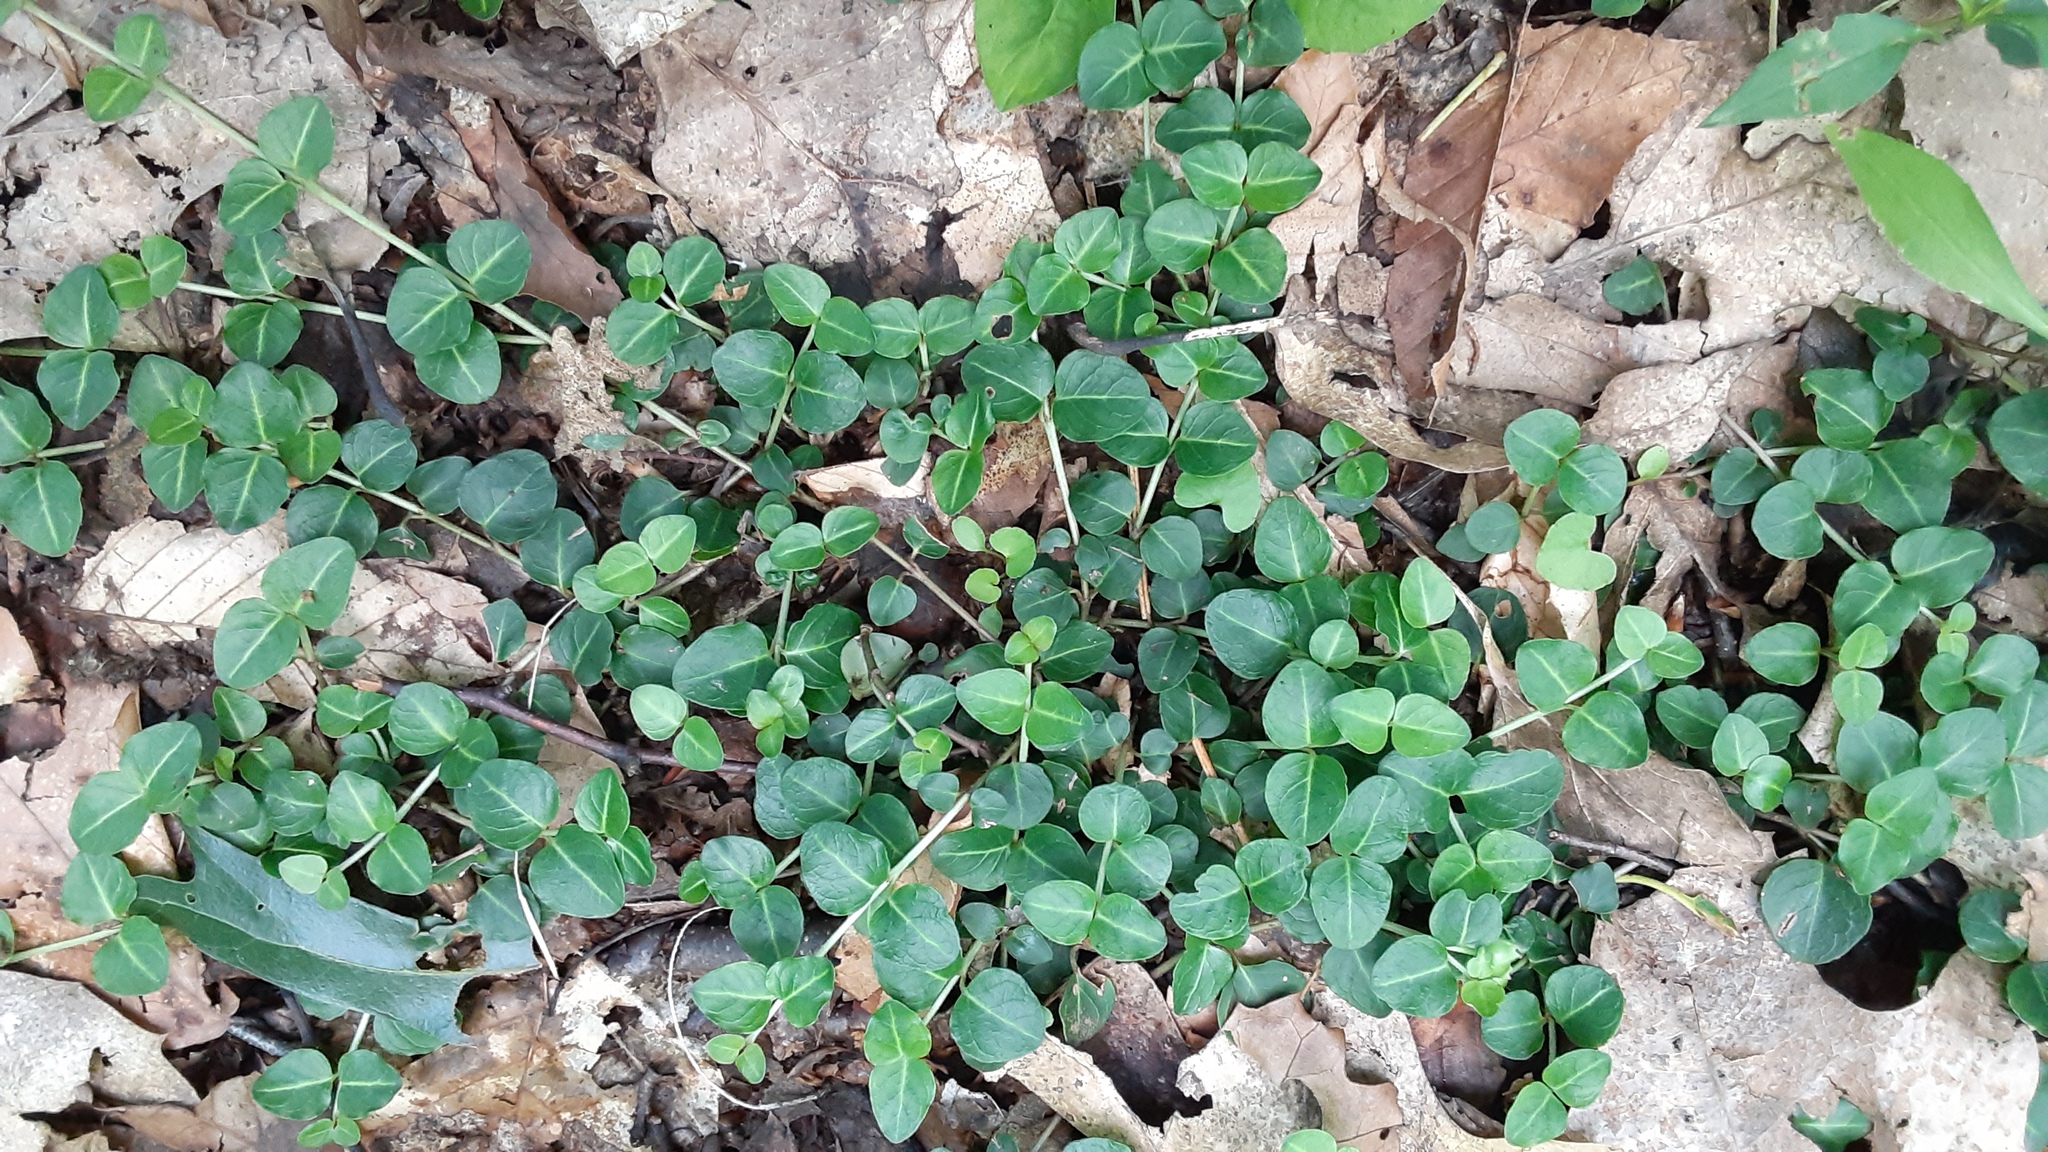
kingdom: Plantae
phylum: Tracheophyta
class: Magnoliopsida
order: Gentianales
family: Rubiaceae
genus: Mitchella
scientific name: Mitchella repens
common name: Partridge-berry
